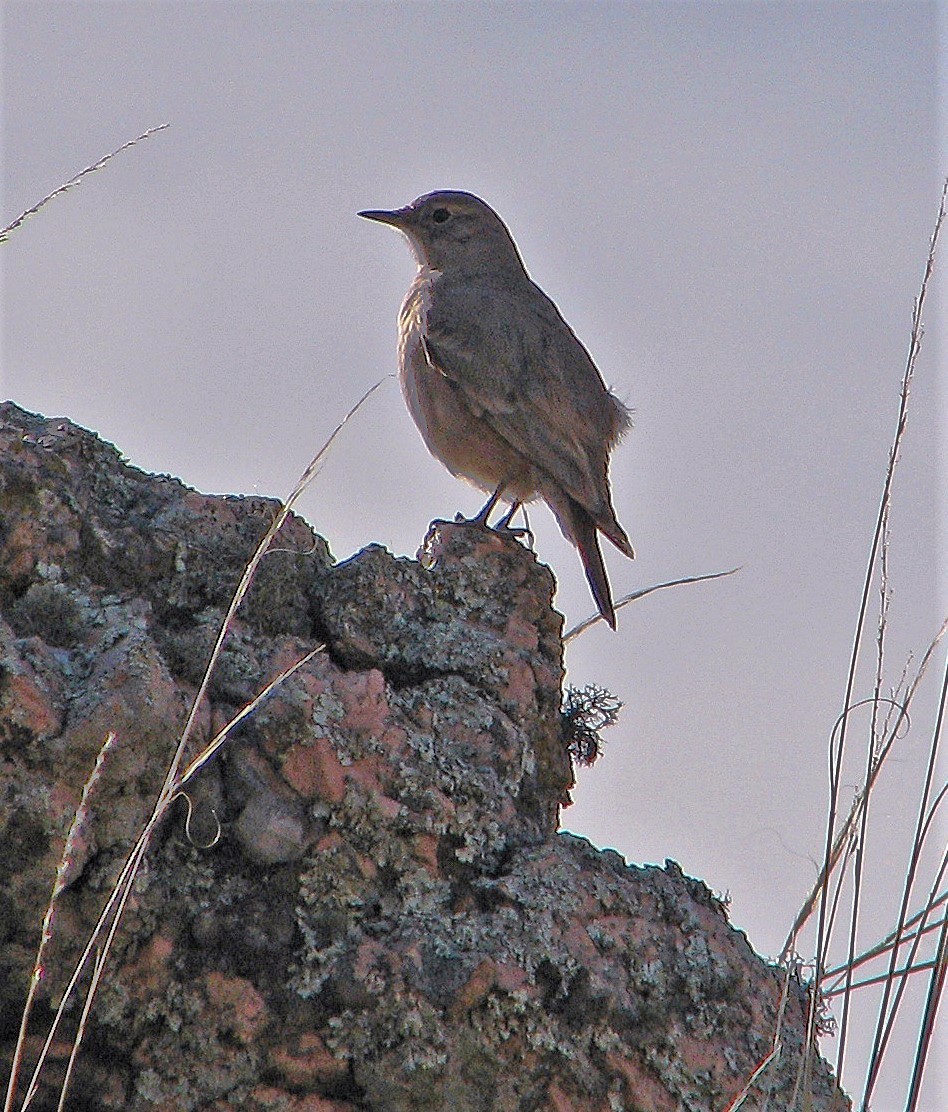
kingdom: Animalia
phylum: Chordata
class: Aves
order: Passeriformes
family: Furnariidae
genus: Geositta
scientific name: Geositta rufipennis
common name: Rufous-banded miner
